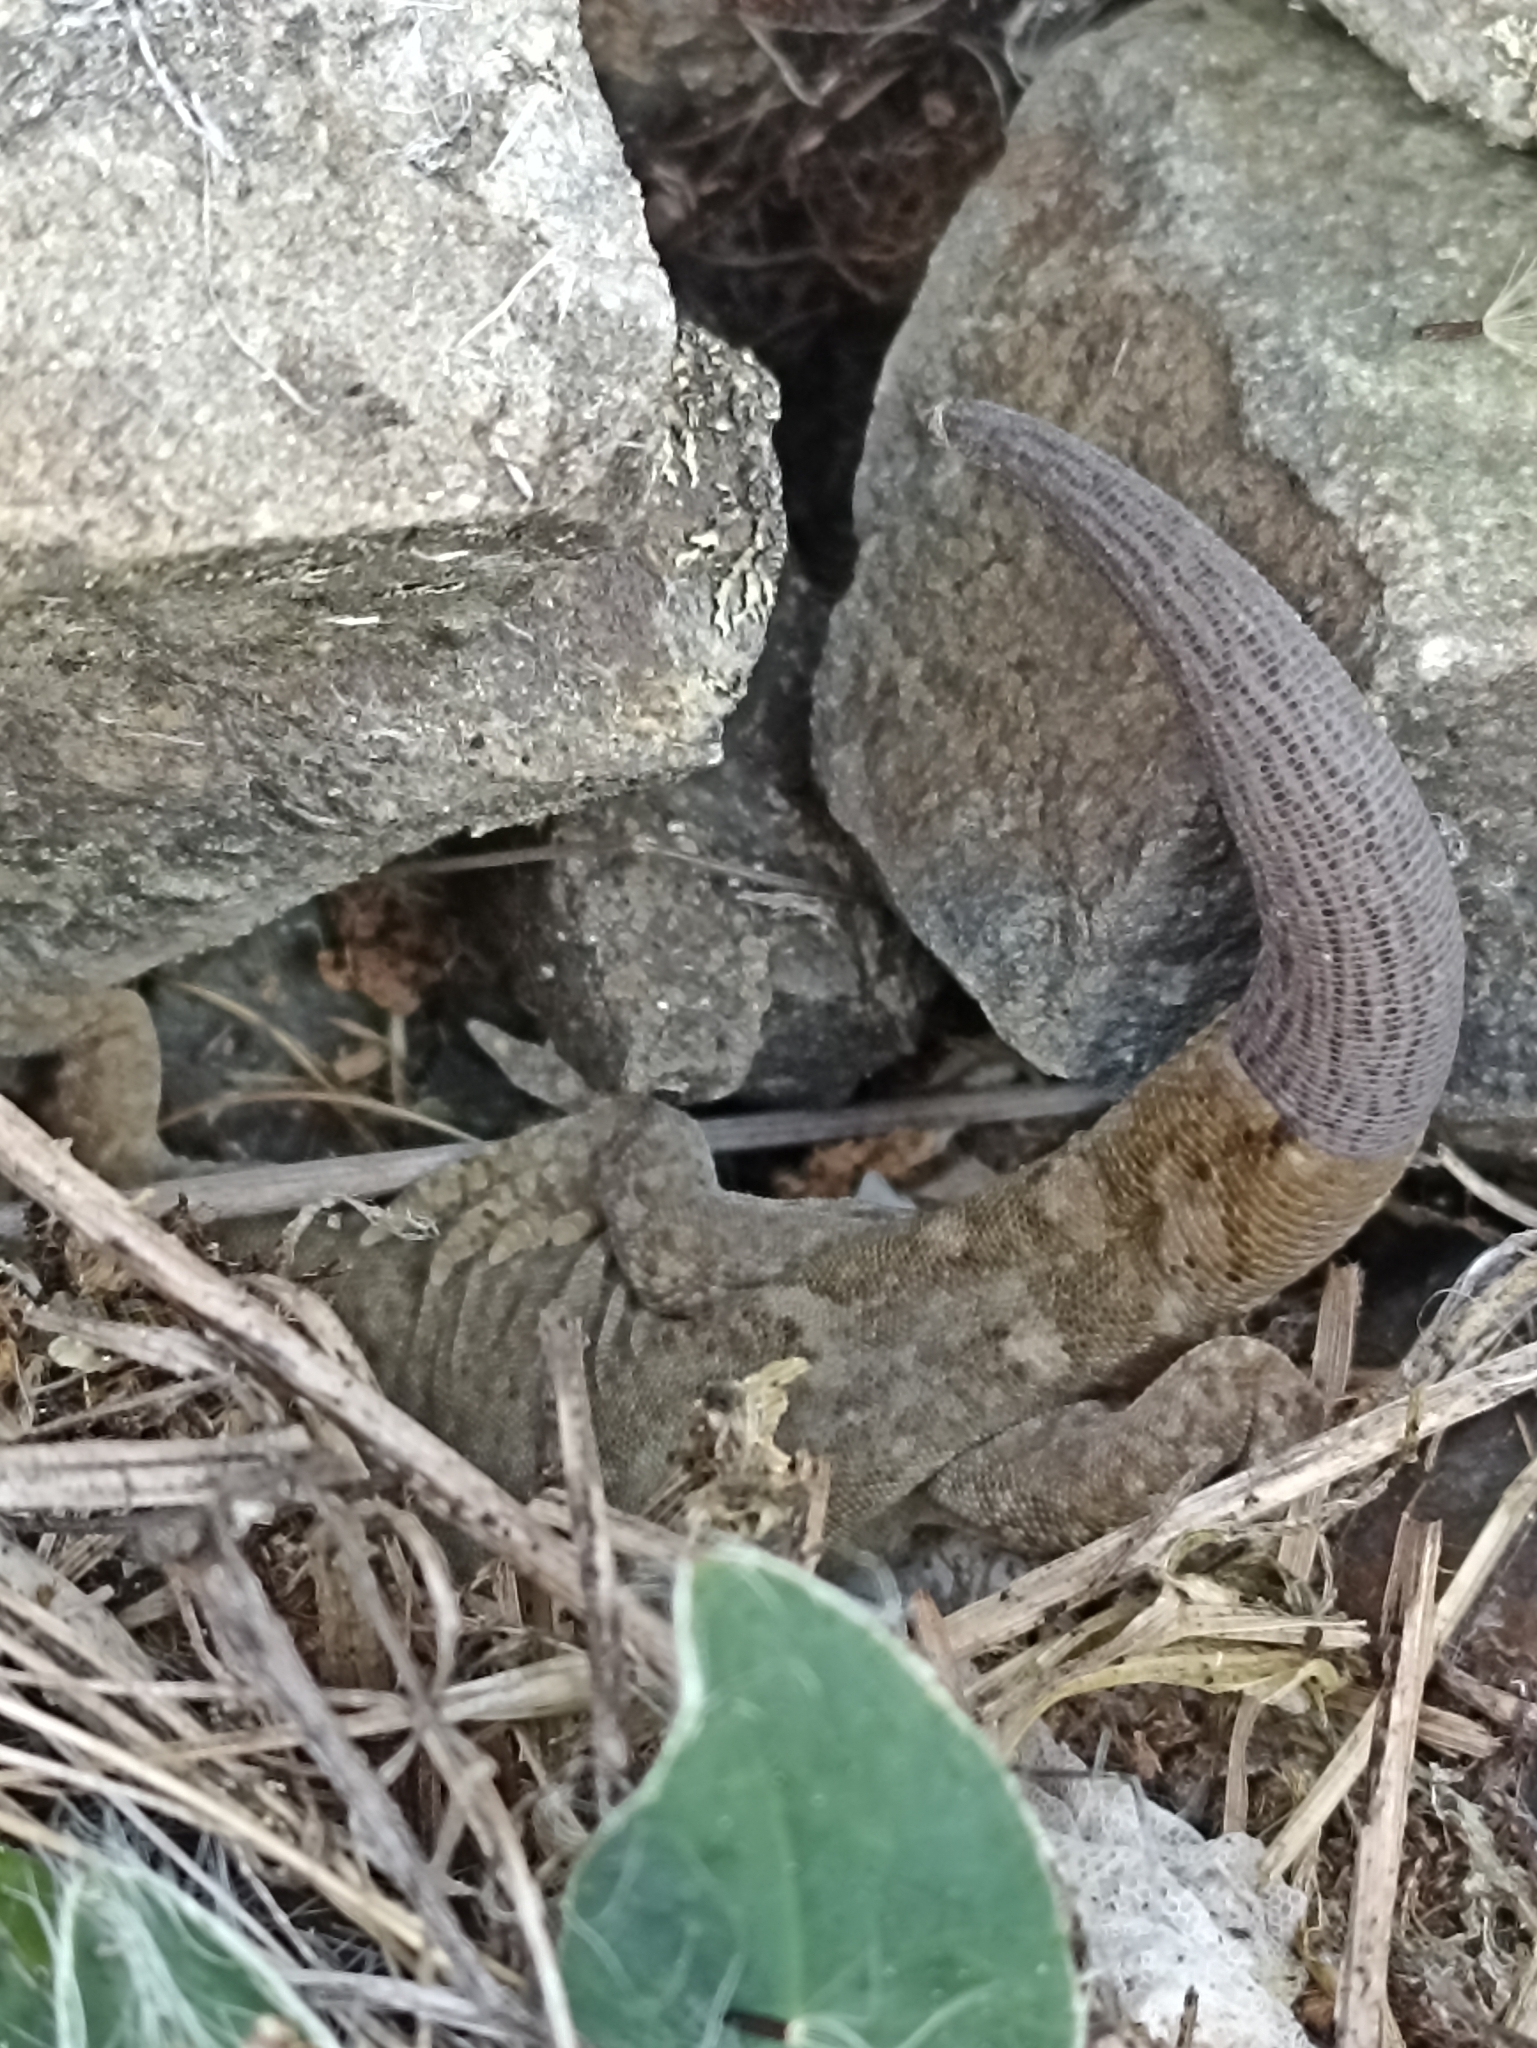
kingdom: Animalia
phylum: Chordata
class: Squamata
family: Diplodactylidae
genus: Woodworthia
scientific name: Woodworthia
